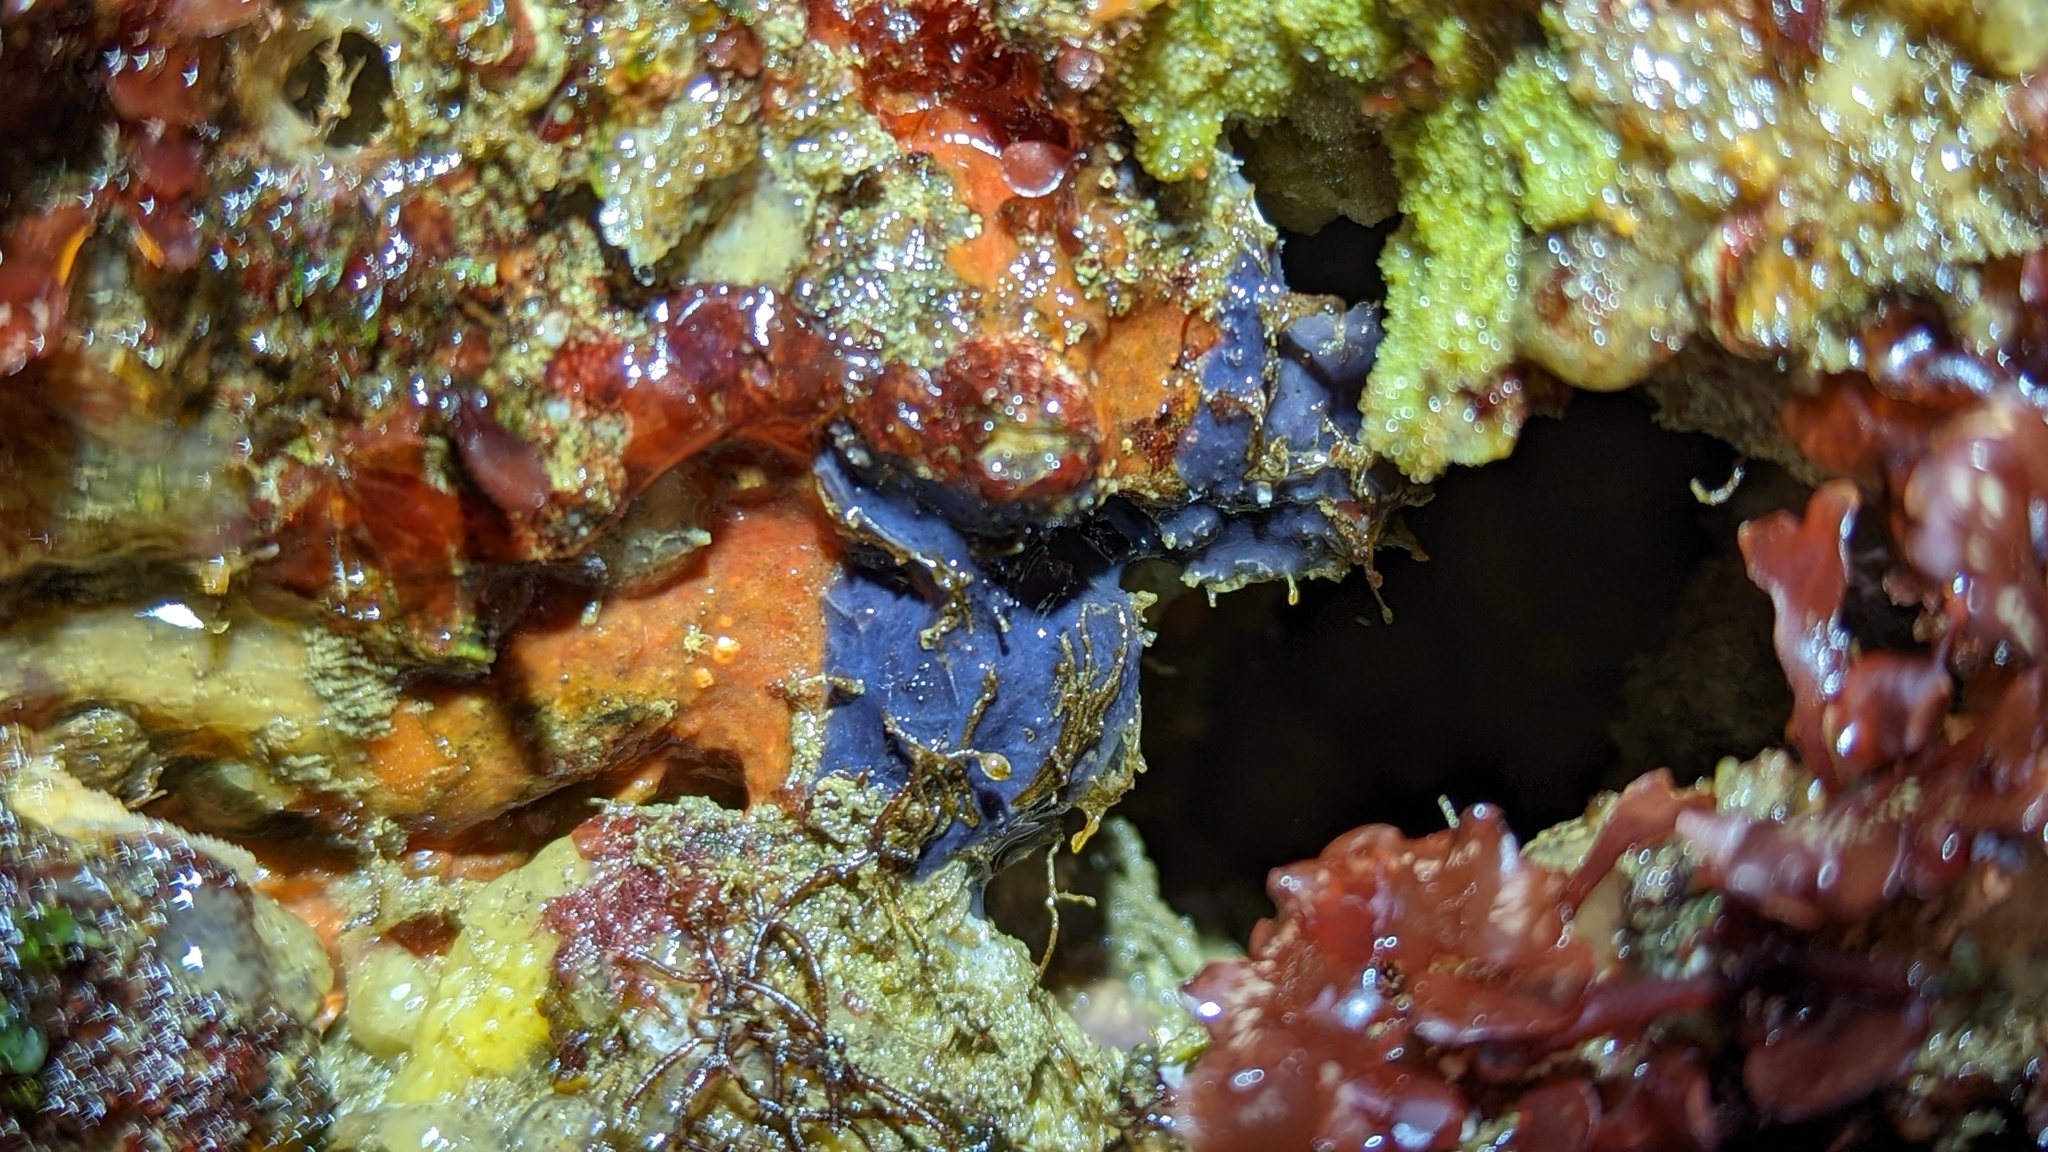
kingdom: Animalia
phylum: Porifera
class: Demospongiae
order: Poecilosclerida
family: Hymedesmiidae
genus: Acanthancora
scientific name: Acanthancora cyanocrypta
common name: Cobalt blue horny sponge
